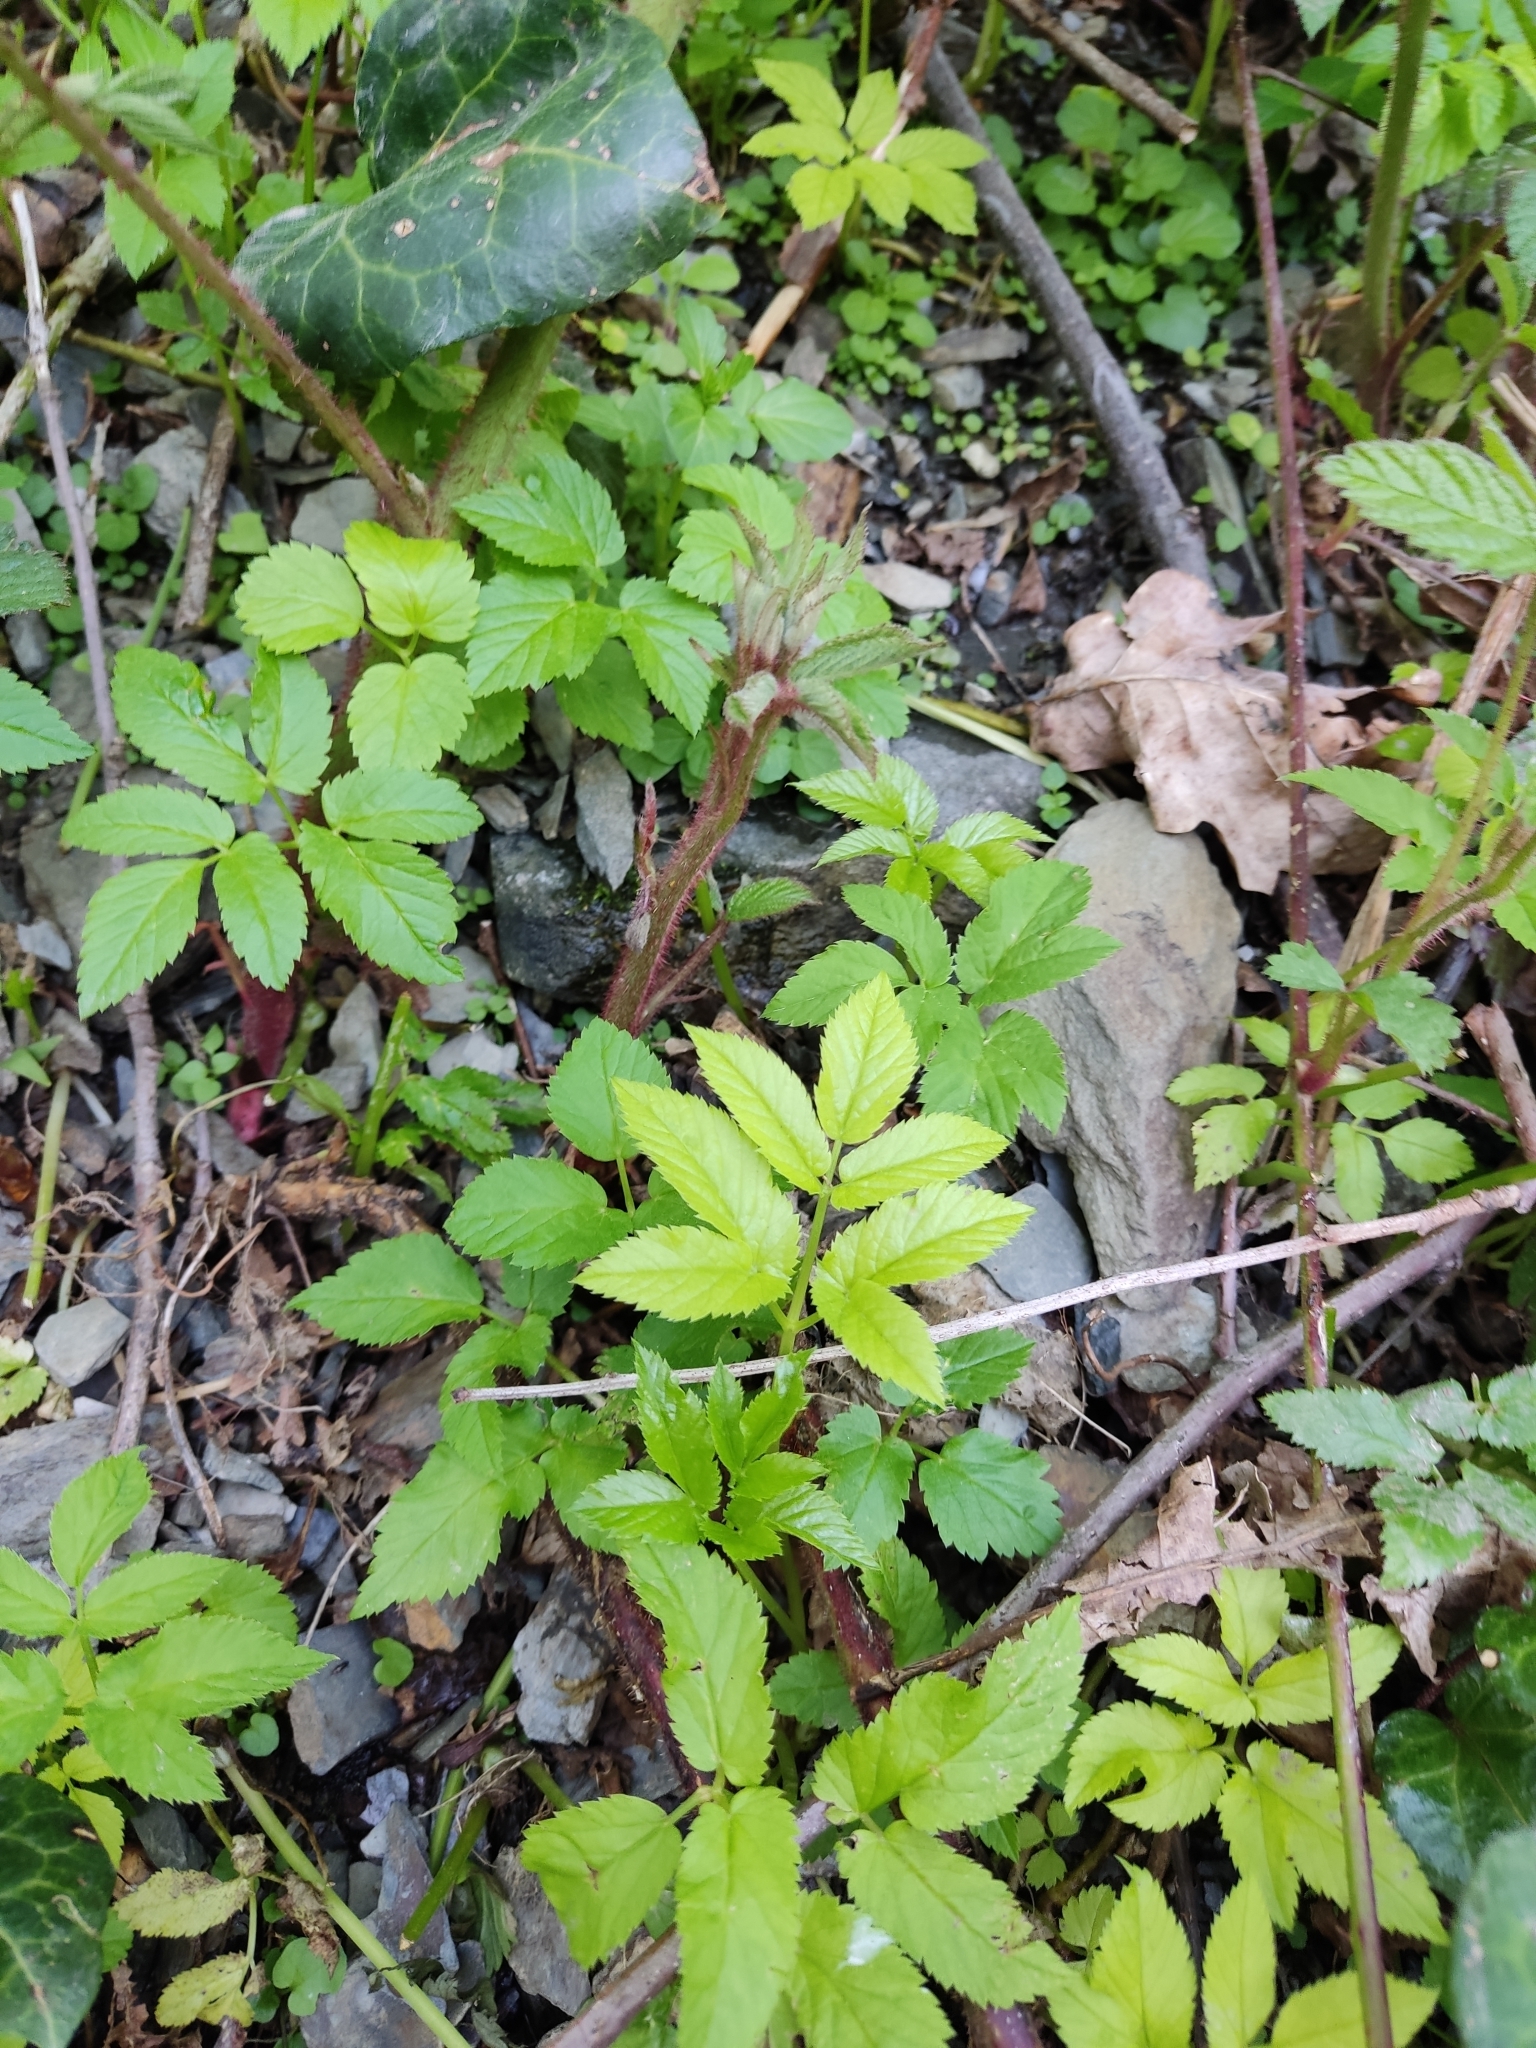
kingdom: Plantae
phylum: Tracheophyta
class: Magnoliopsida
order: Apiales
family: Apiaceae
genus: Aegopodium
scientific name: Aegopodium podagraria
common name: Ground-elder
